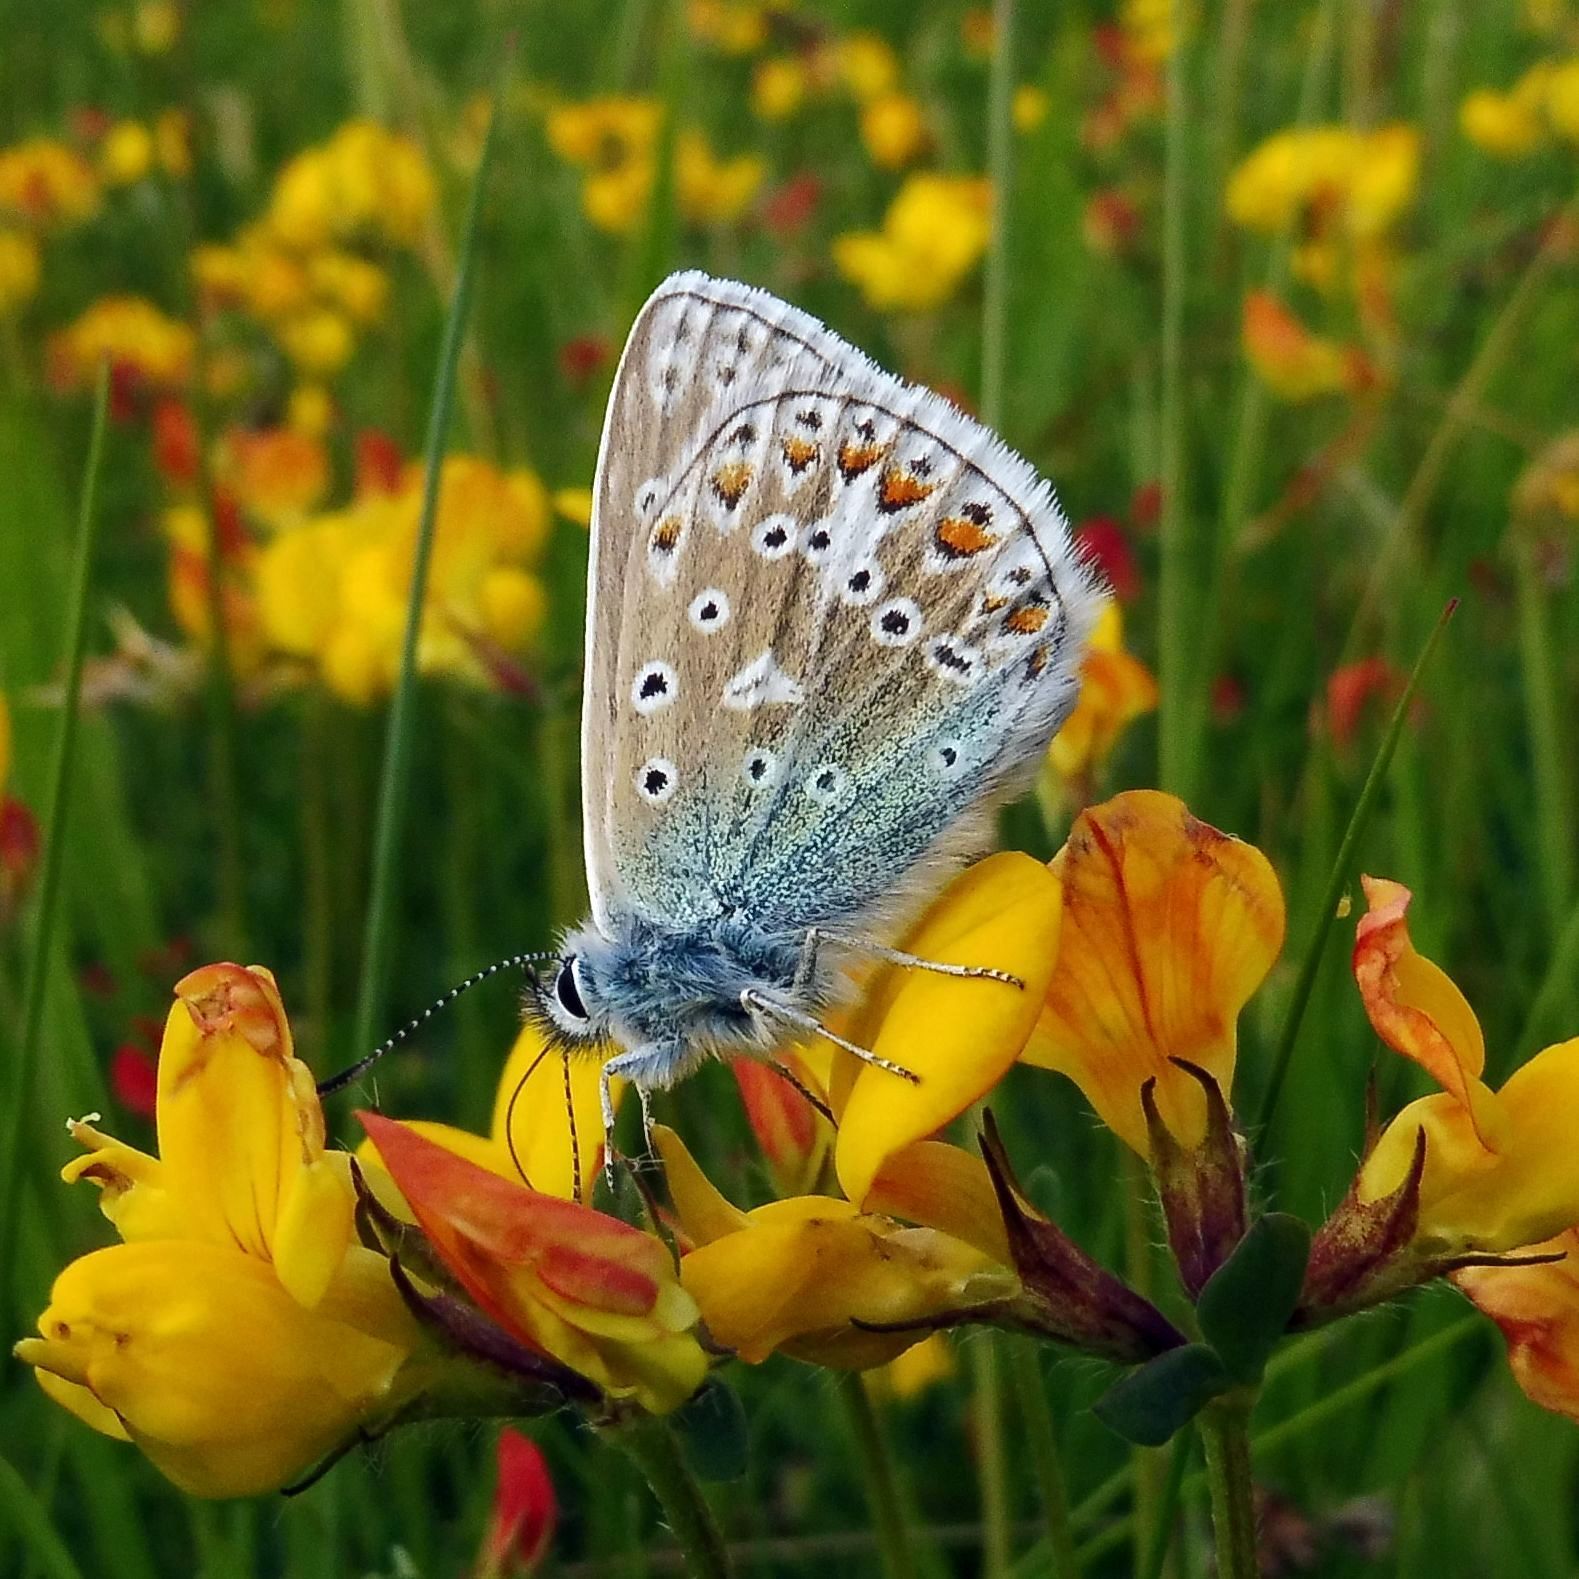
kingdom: Animalia
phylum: Arthropoda
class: Insecta
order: Lepidoptera
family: Lycaenidae
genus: Polyommatus
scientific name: Polyommatus icarus
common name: Common blue
